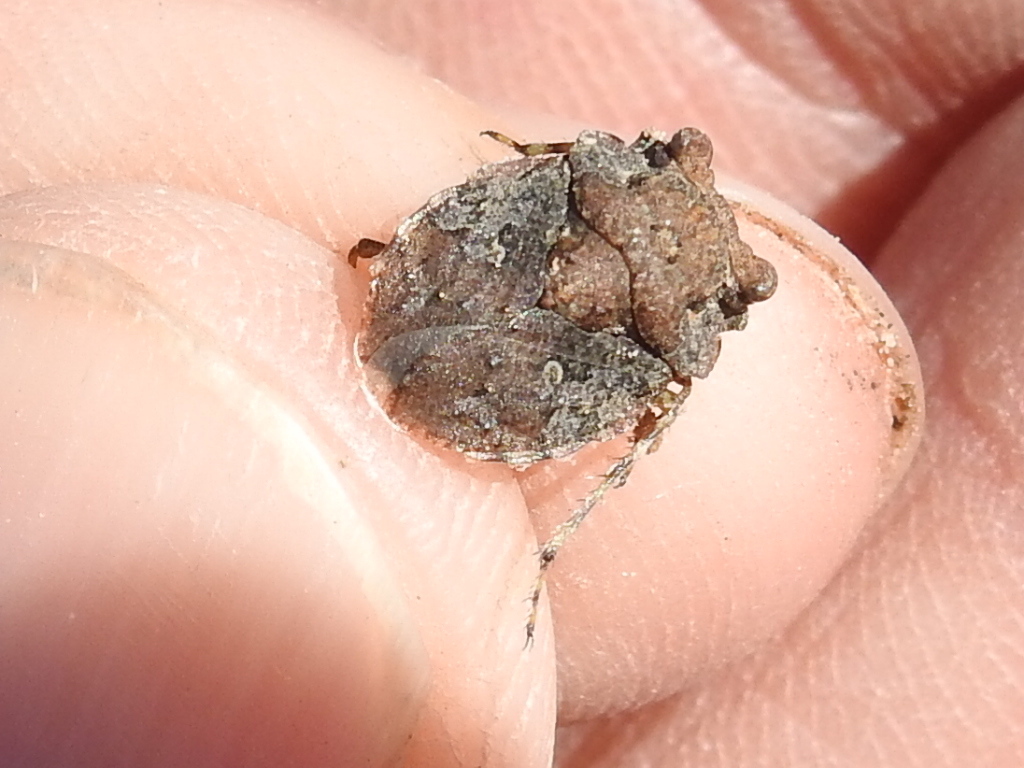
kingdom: Animalia
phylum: Arthropoda
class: Insecta
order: Hemiptera
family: Gelastocoridae
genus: Gelastocoris
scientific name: Gelastocoris oculatus
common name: Toad bug
